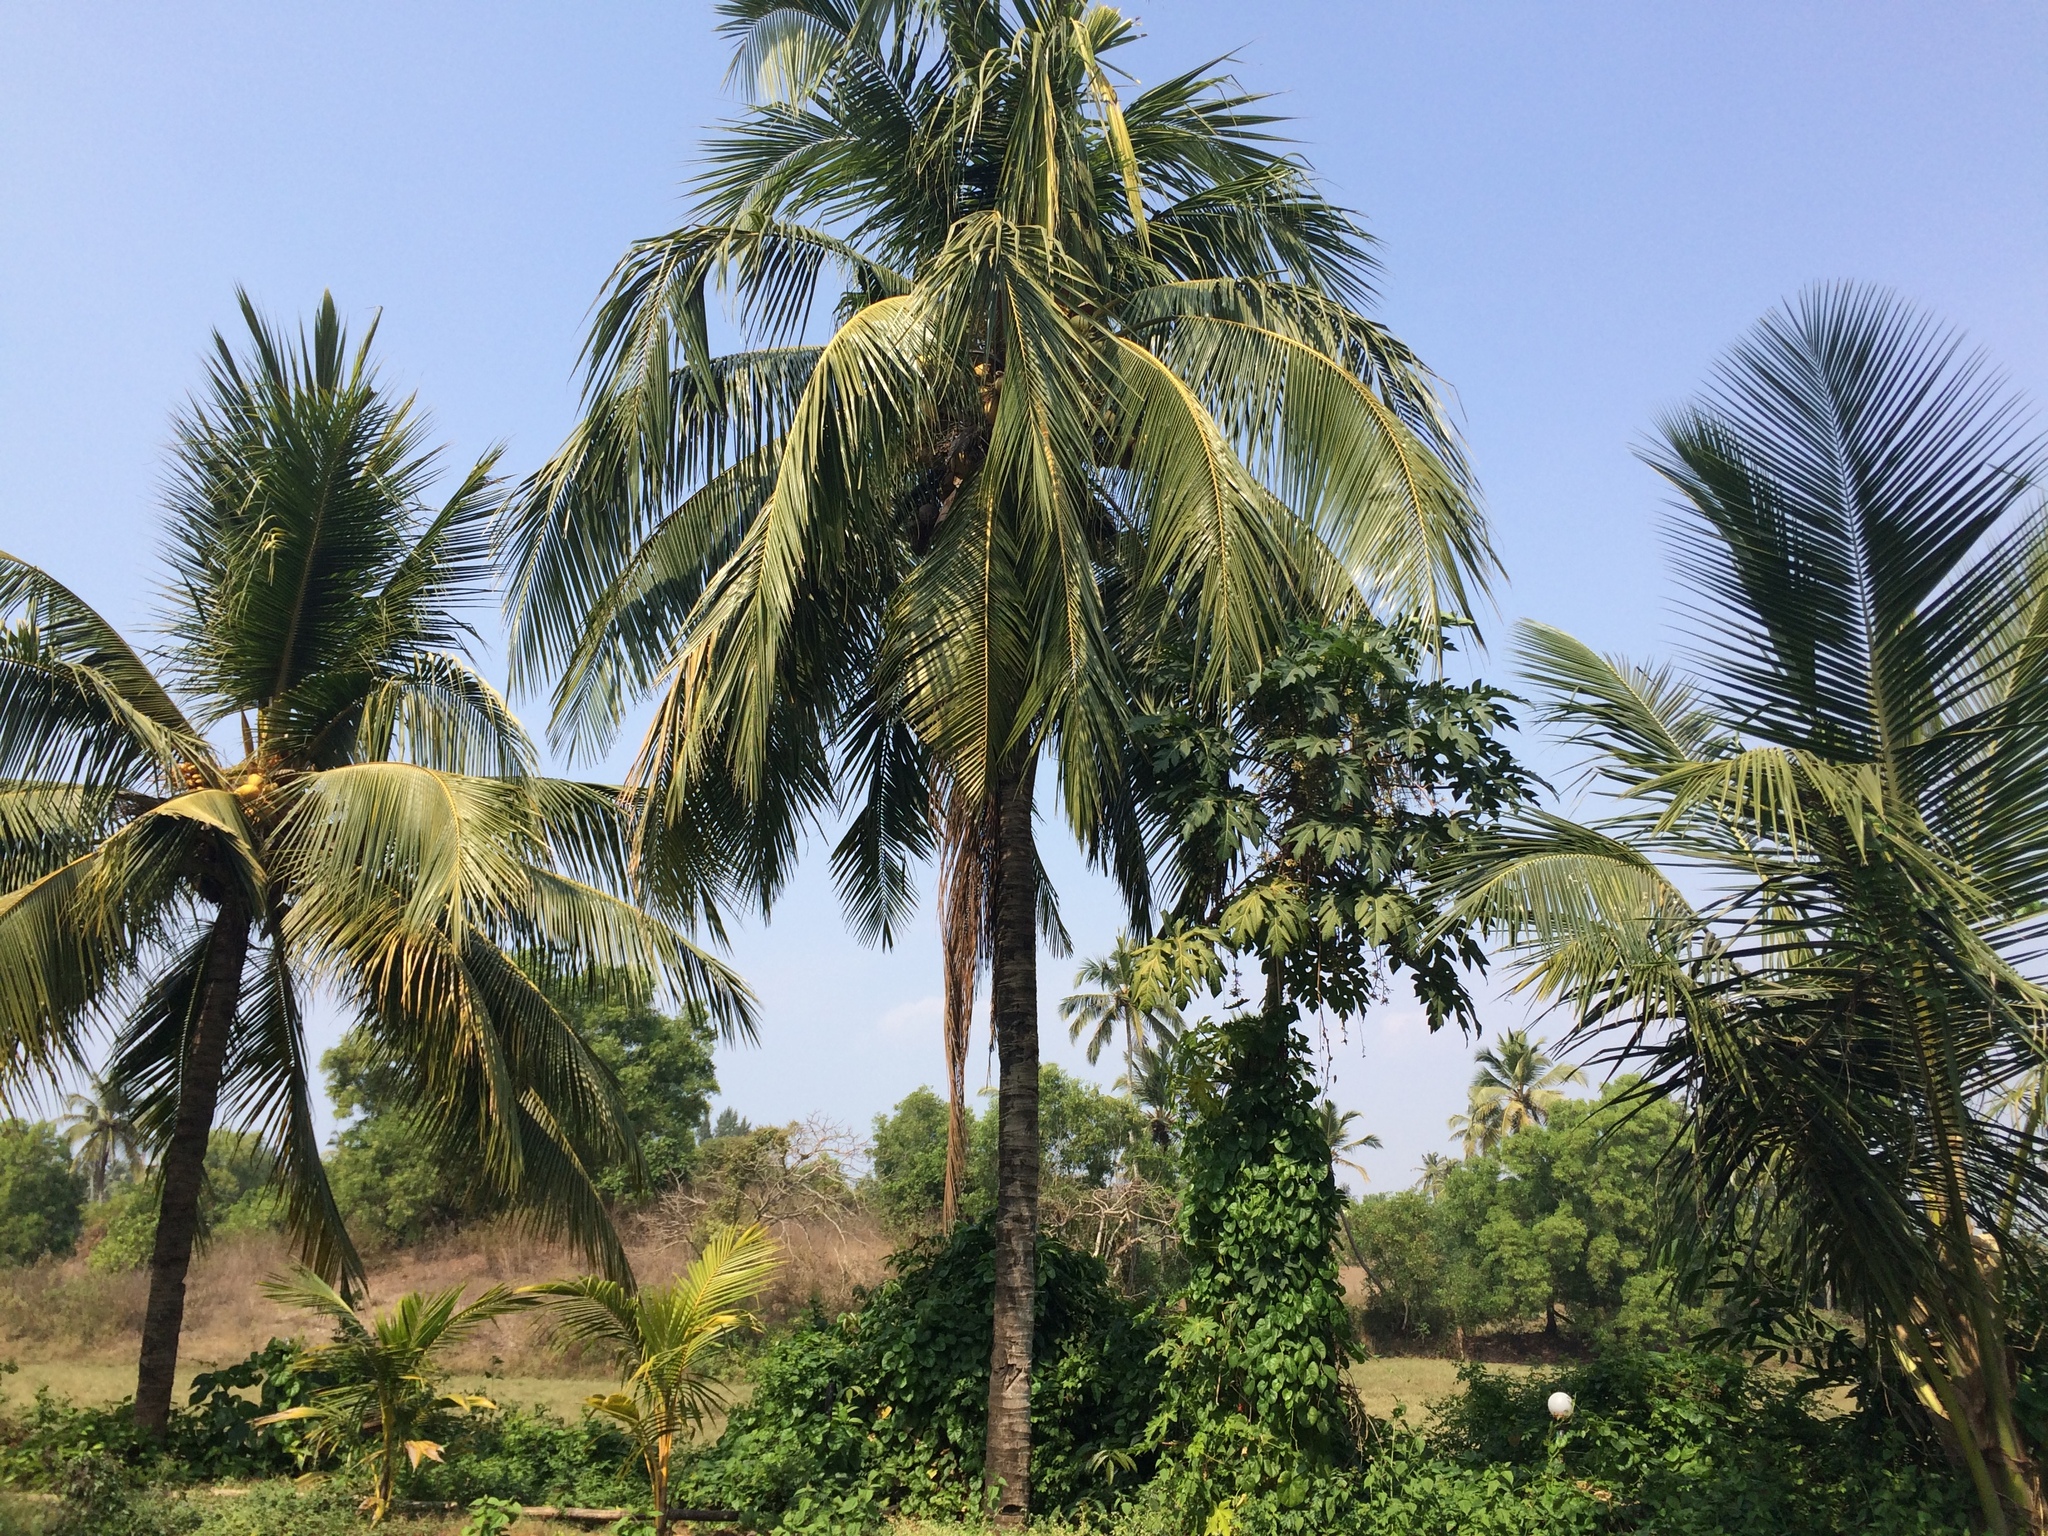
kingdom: Plantae
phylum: Tracheophyta
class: Liliopsida
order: Arecales
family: Arecaceae
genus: Cocos
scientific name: Cocos nucifera
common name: Coconut palm
